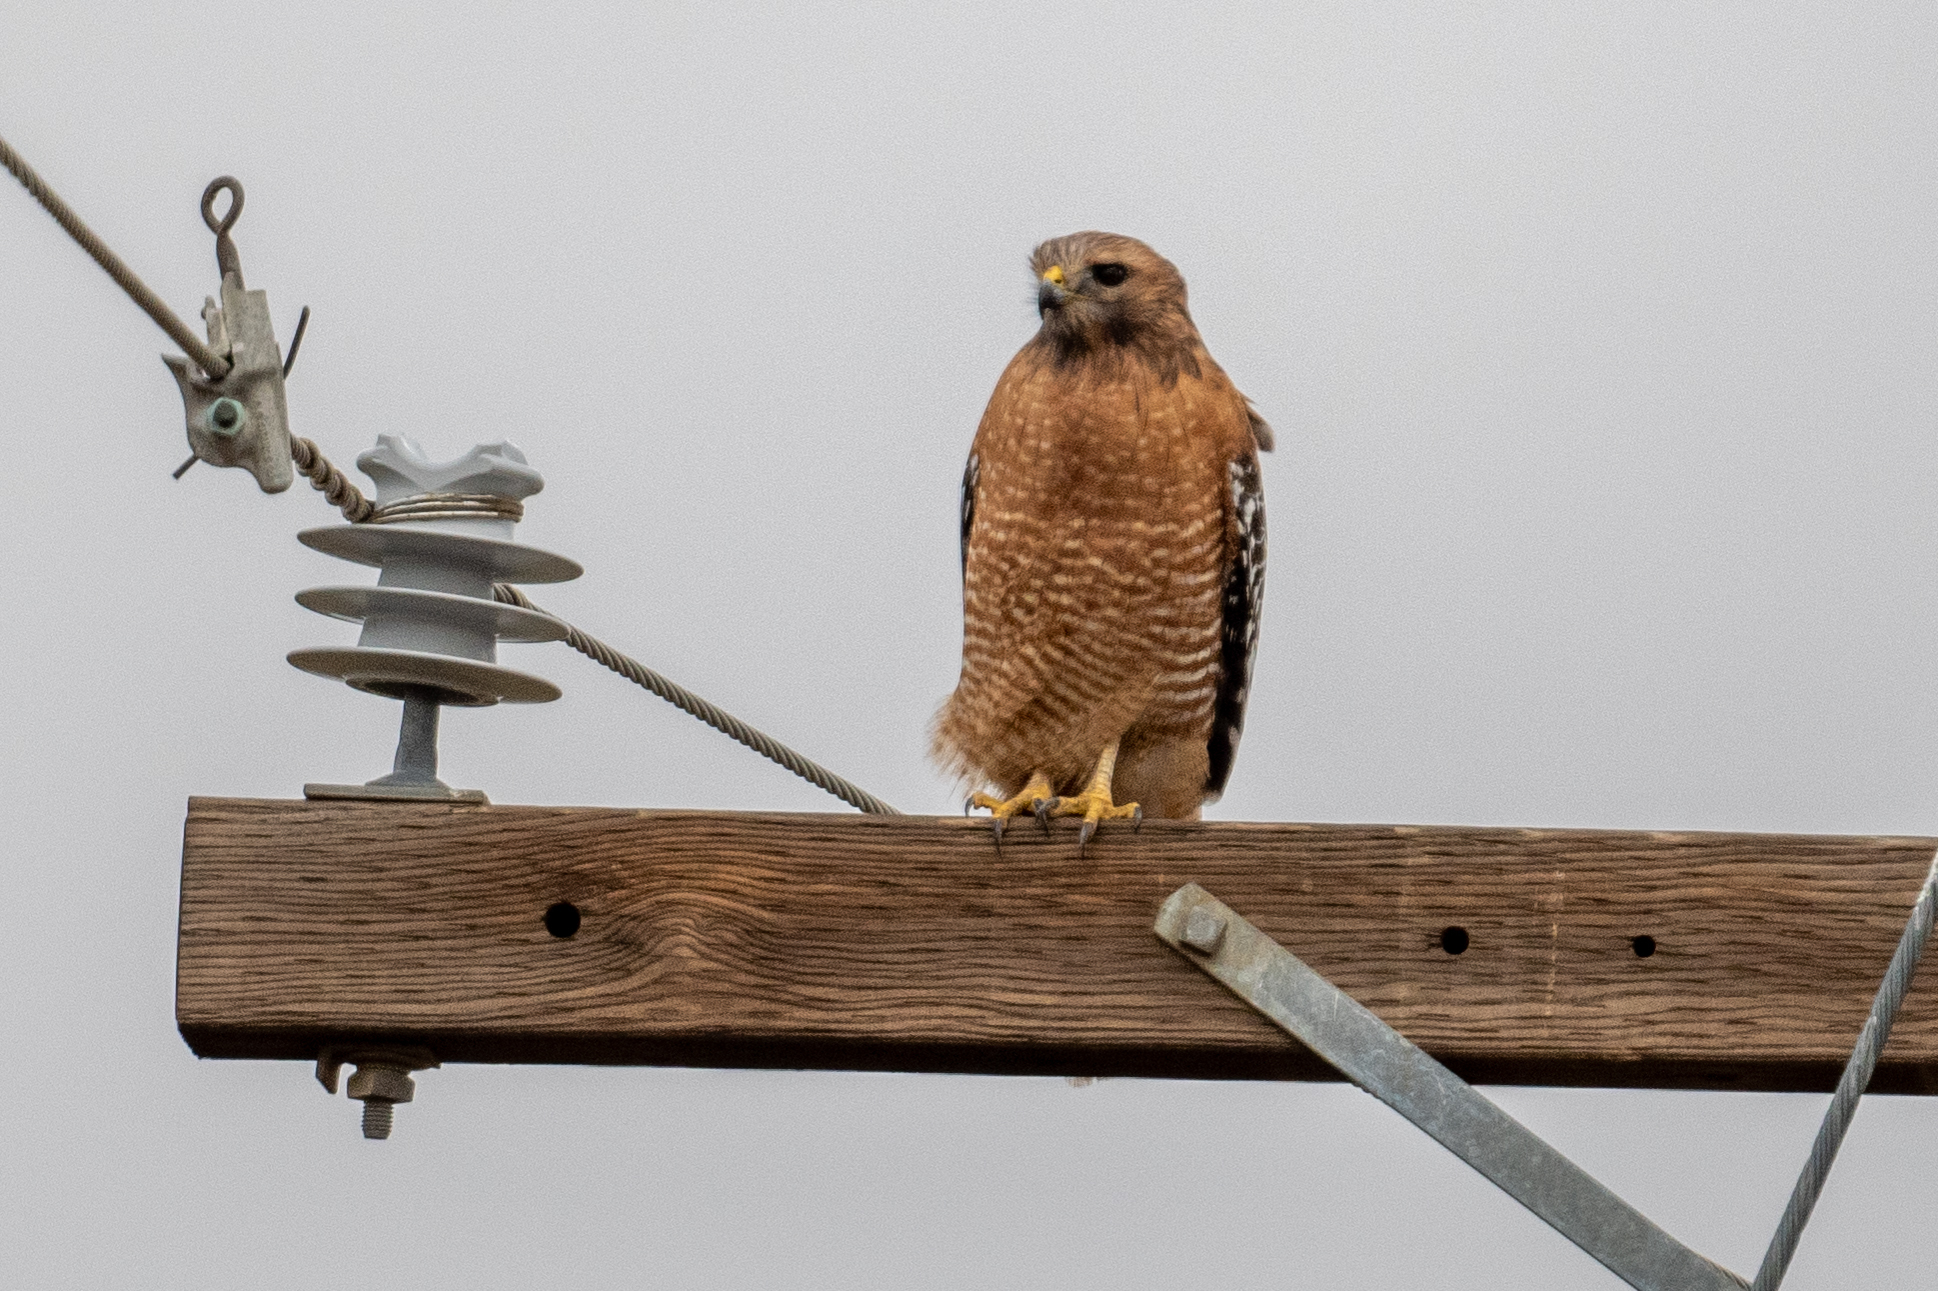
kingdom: Animalia
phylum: Chordata
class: Aves
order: Accipitriformes
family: Accipitridae
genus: Buteo
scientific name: Buteo lineatus
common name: Red-shouldered hawk
